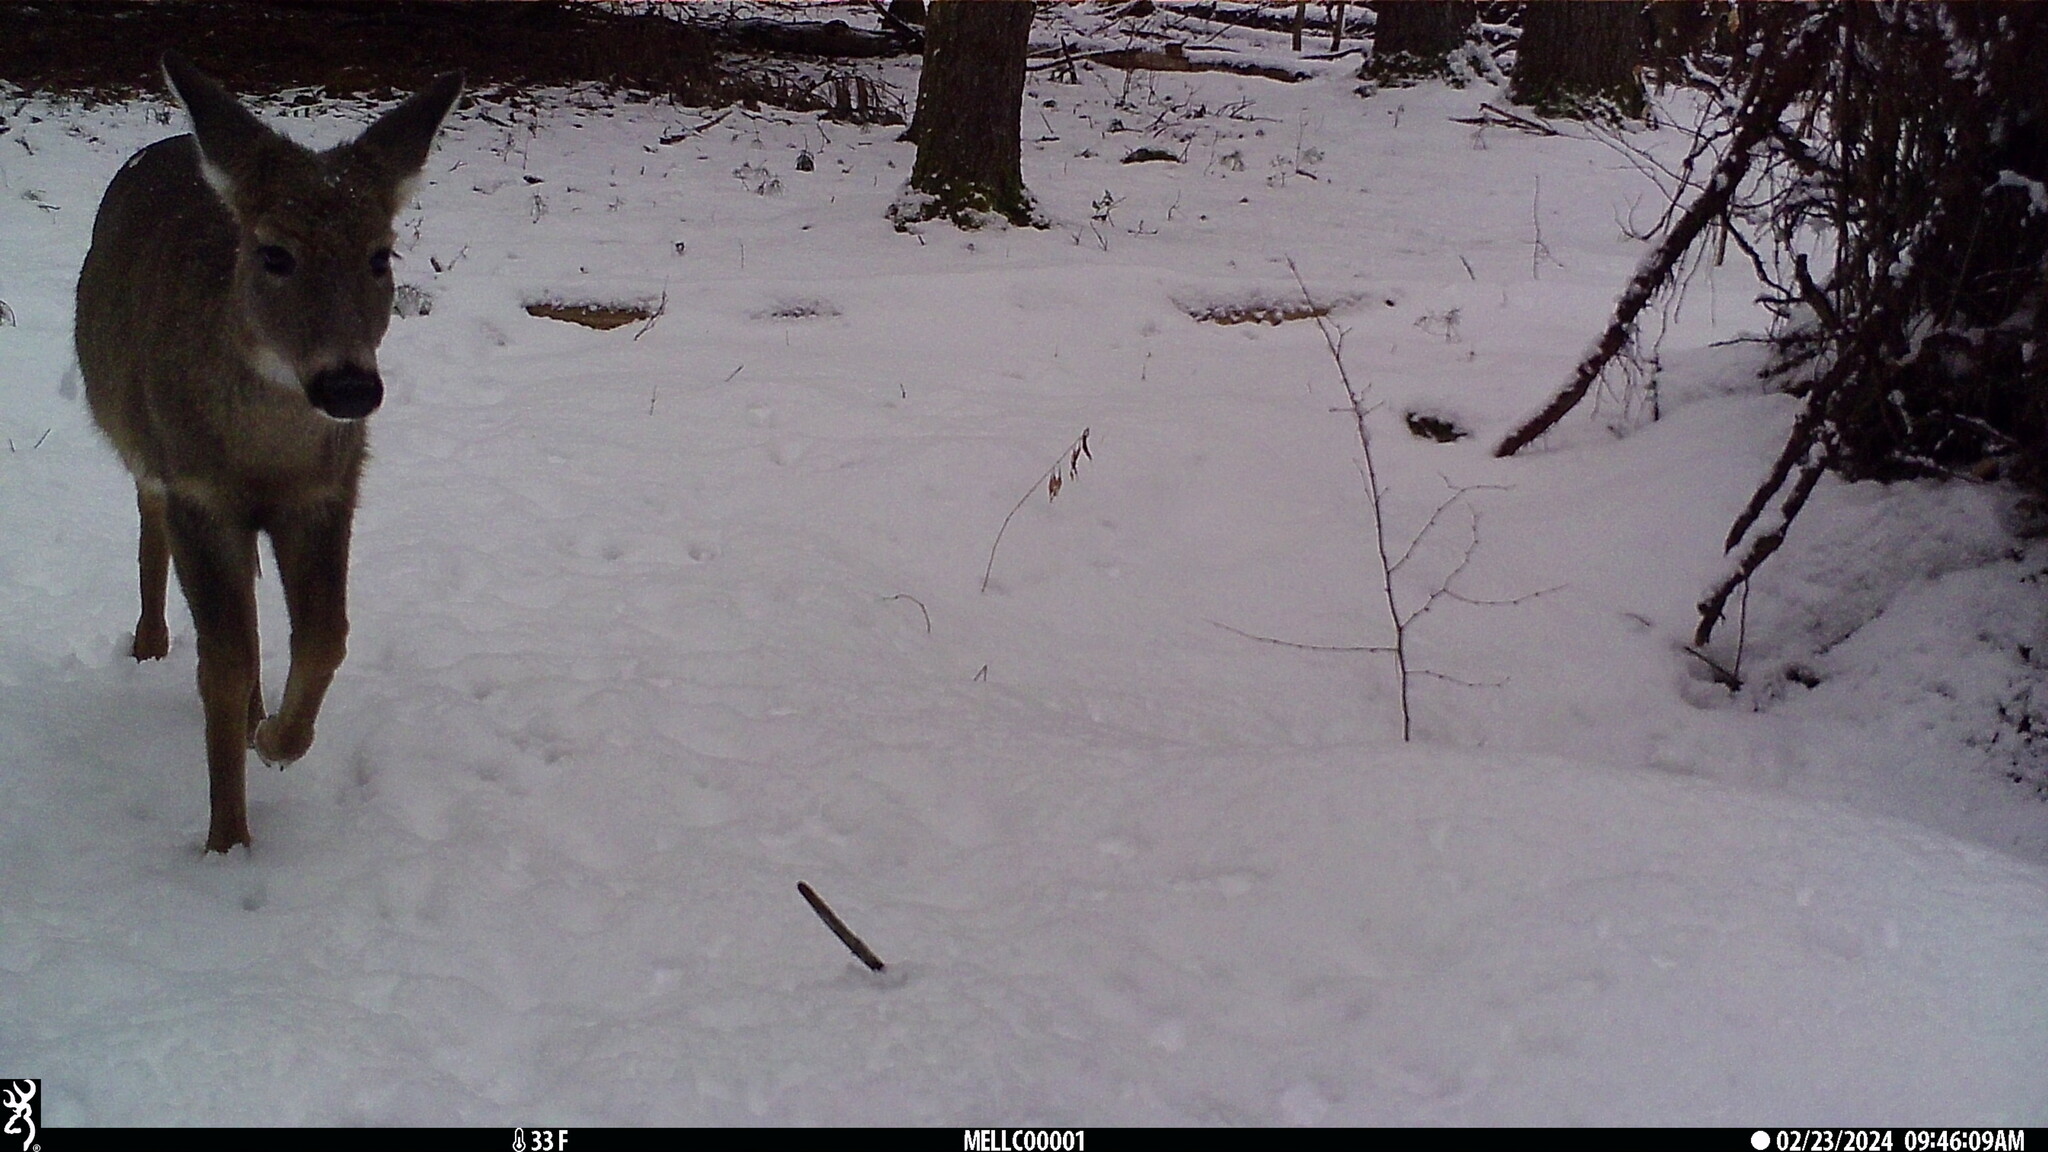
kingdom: Animalia
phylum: Chordata
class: Mammalia
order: Artiodactyla
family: Cervidae
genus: Odocoileus
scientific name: Odocoileus virginianus
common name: White-tailed deer
